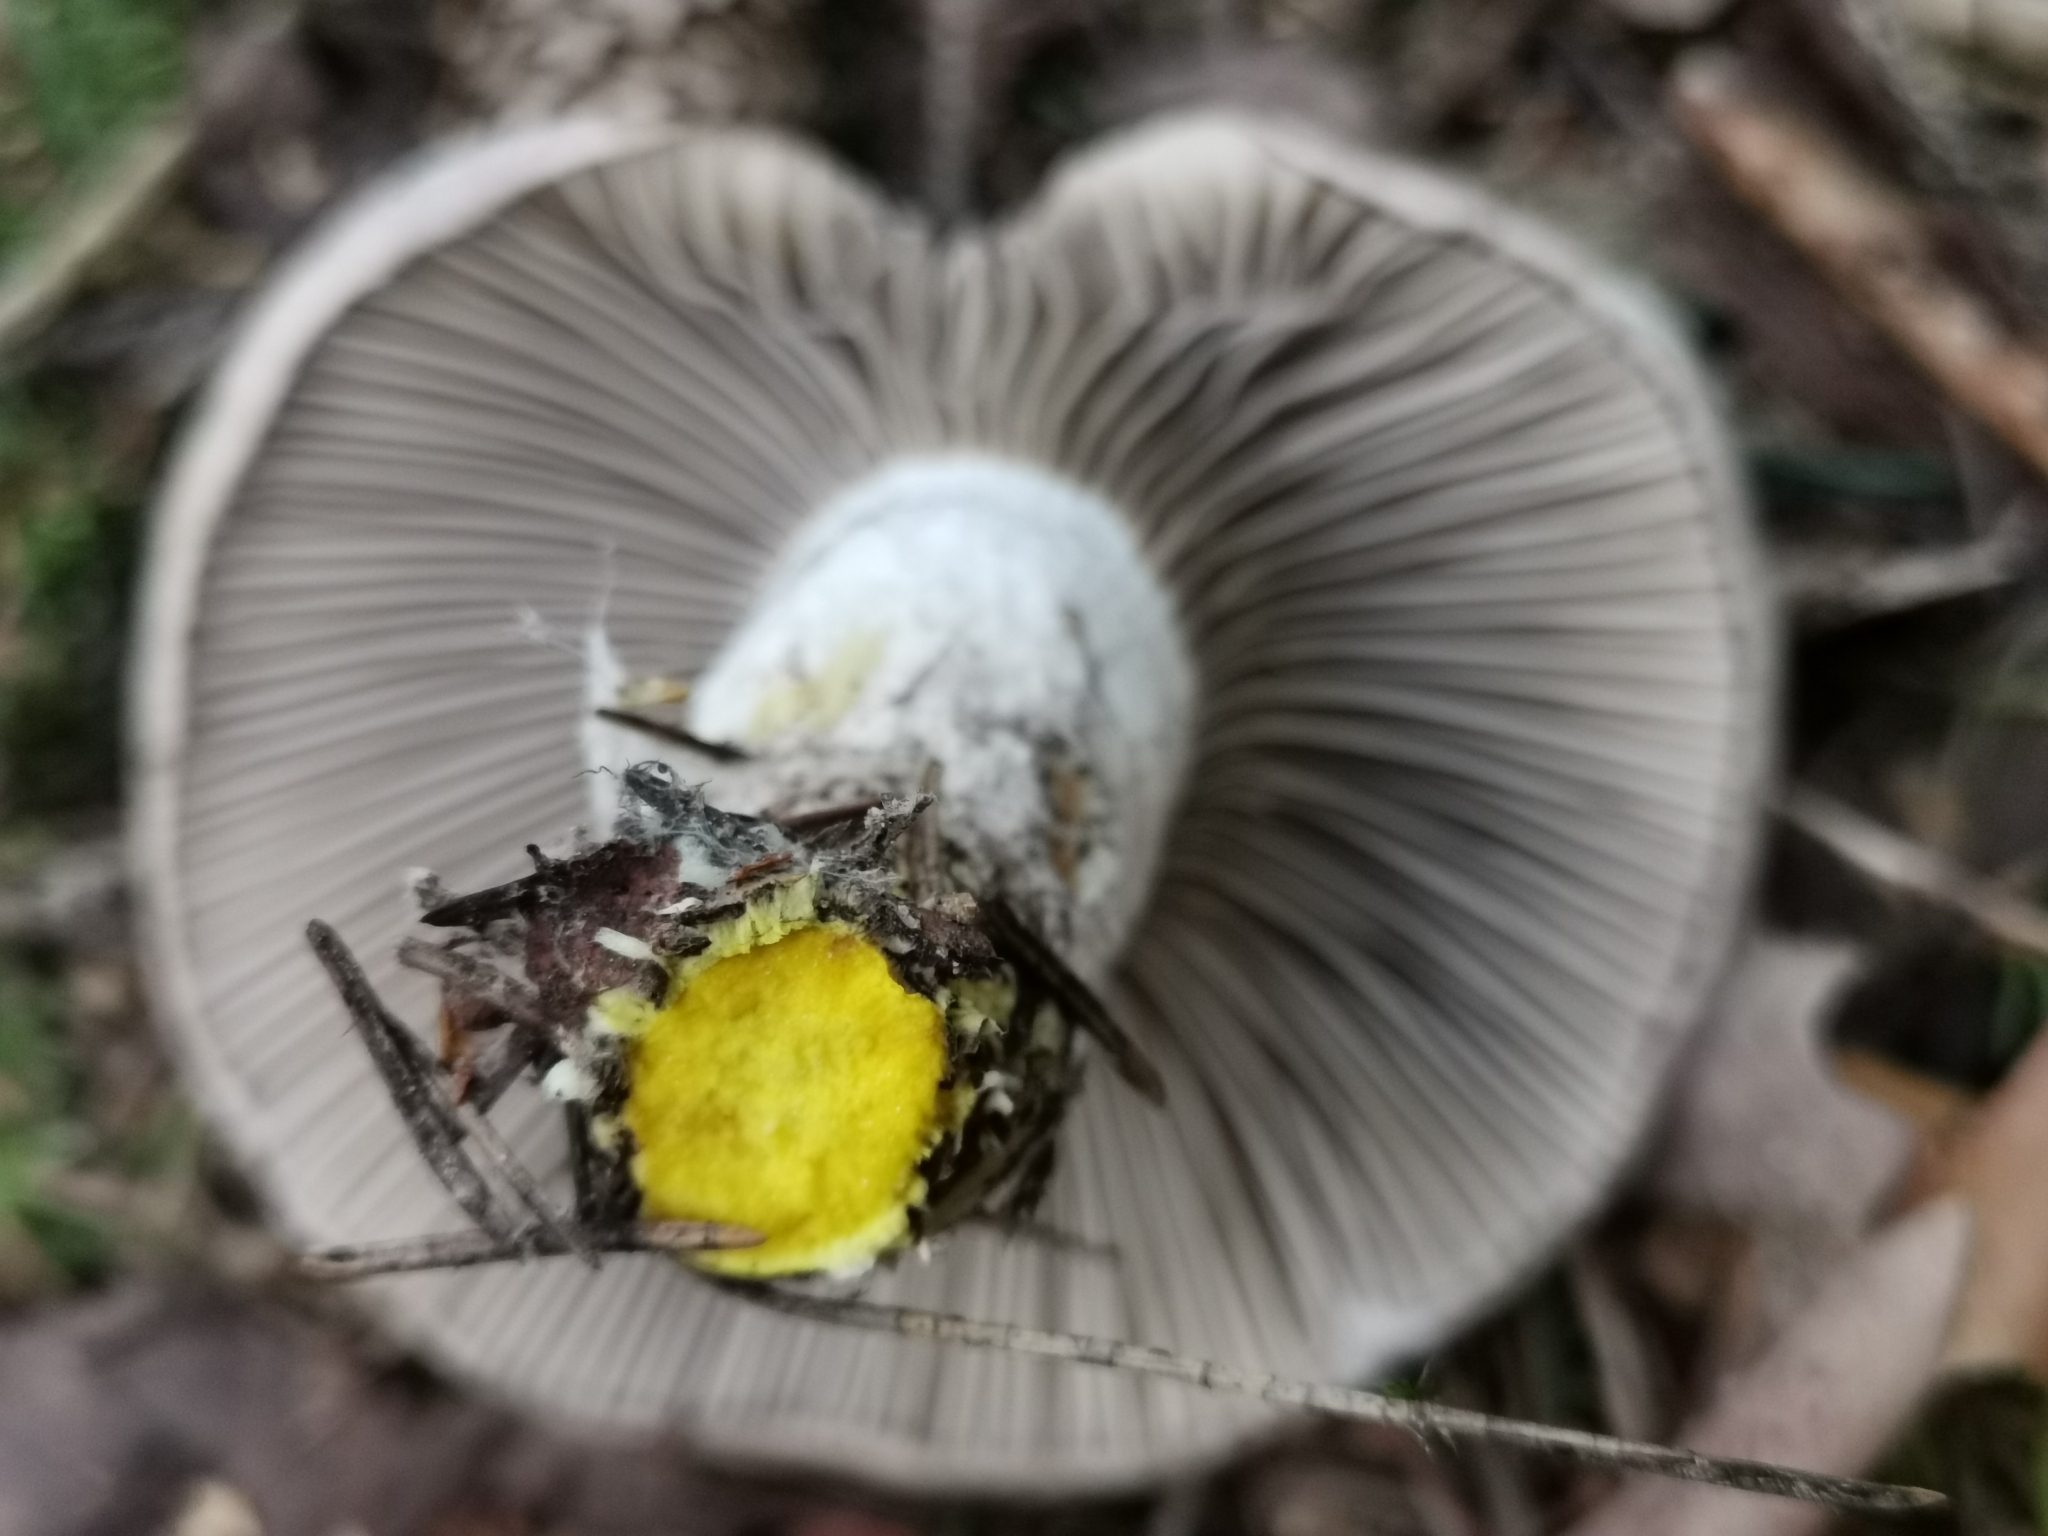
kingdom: Fungi
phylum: Basidiomycota
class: Agaricomycetes
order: Boletales
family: Gomphidiaceae
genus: Gomphidius
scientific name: Gomphidius glutinosus
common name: Slimy spike
